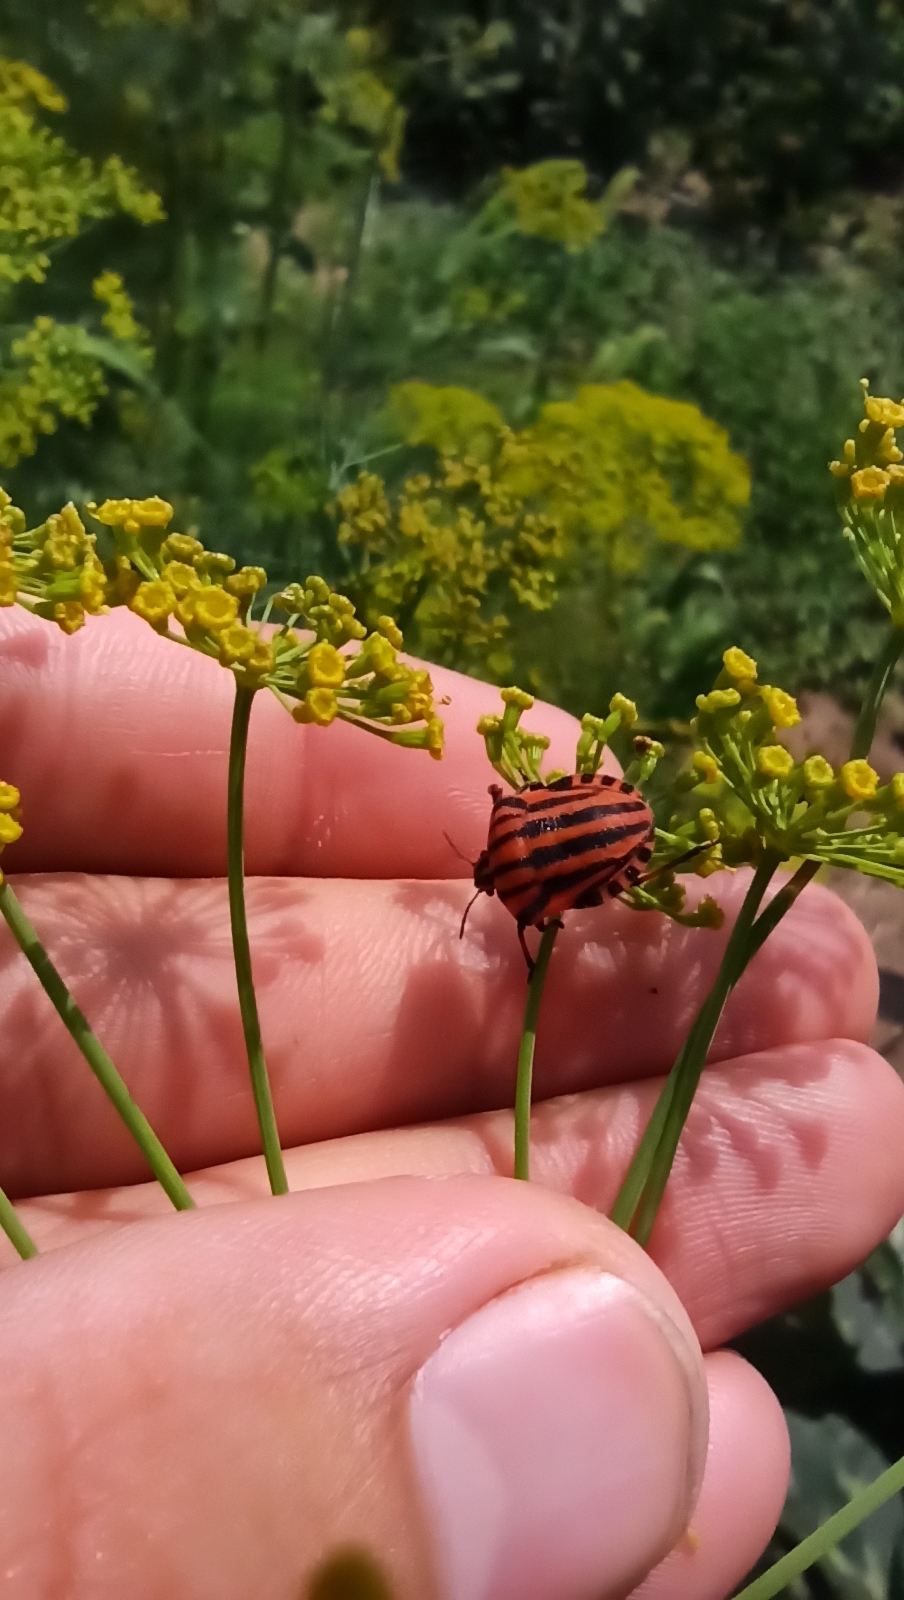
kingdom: Animalia
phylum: Arthropoda
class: Insecta
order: Hemiptera
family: Pentatomidae
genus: Graphosoma
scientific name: Graphosoma italicum
